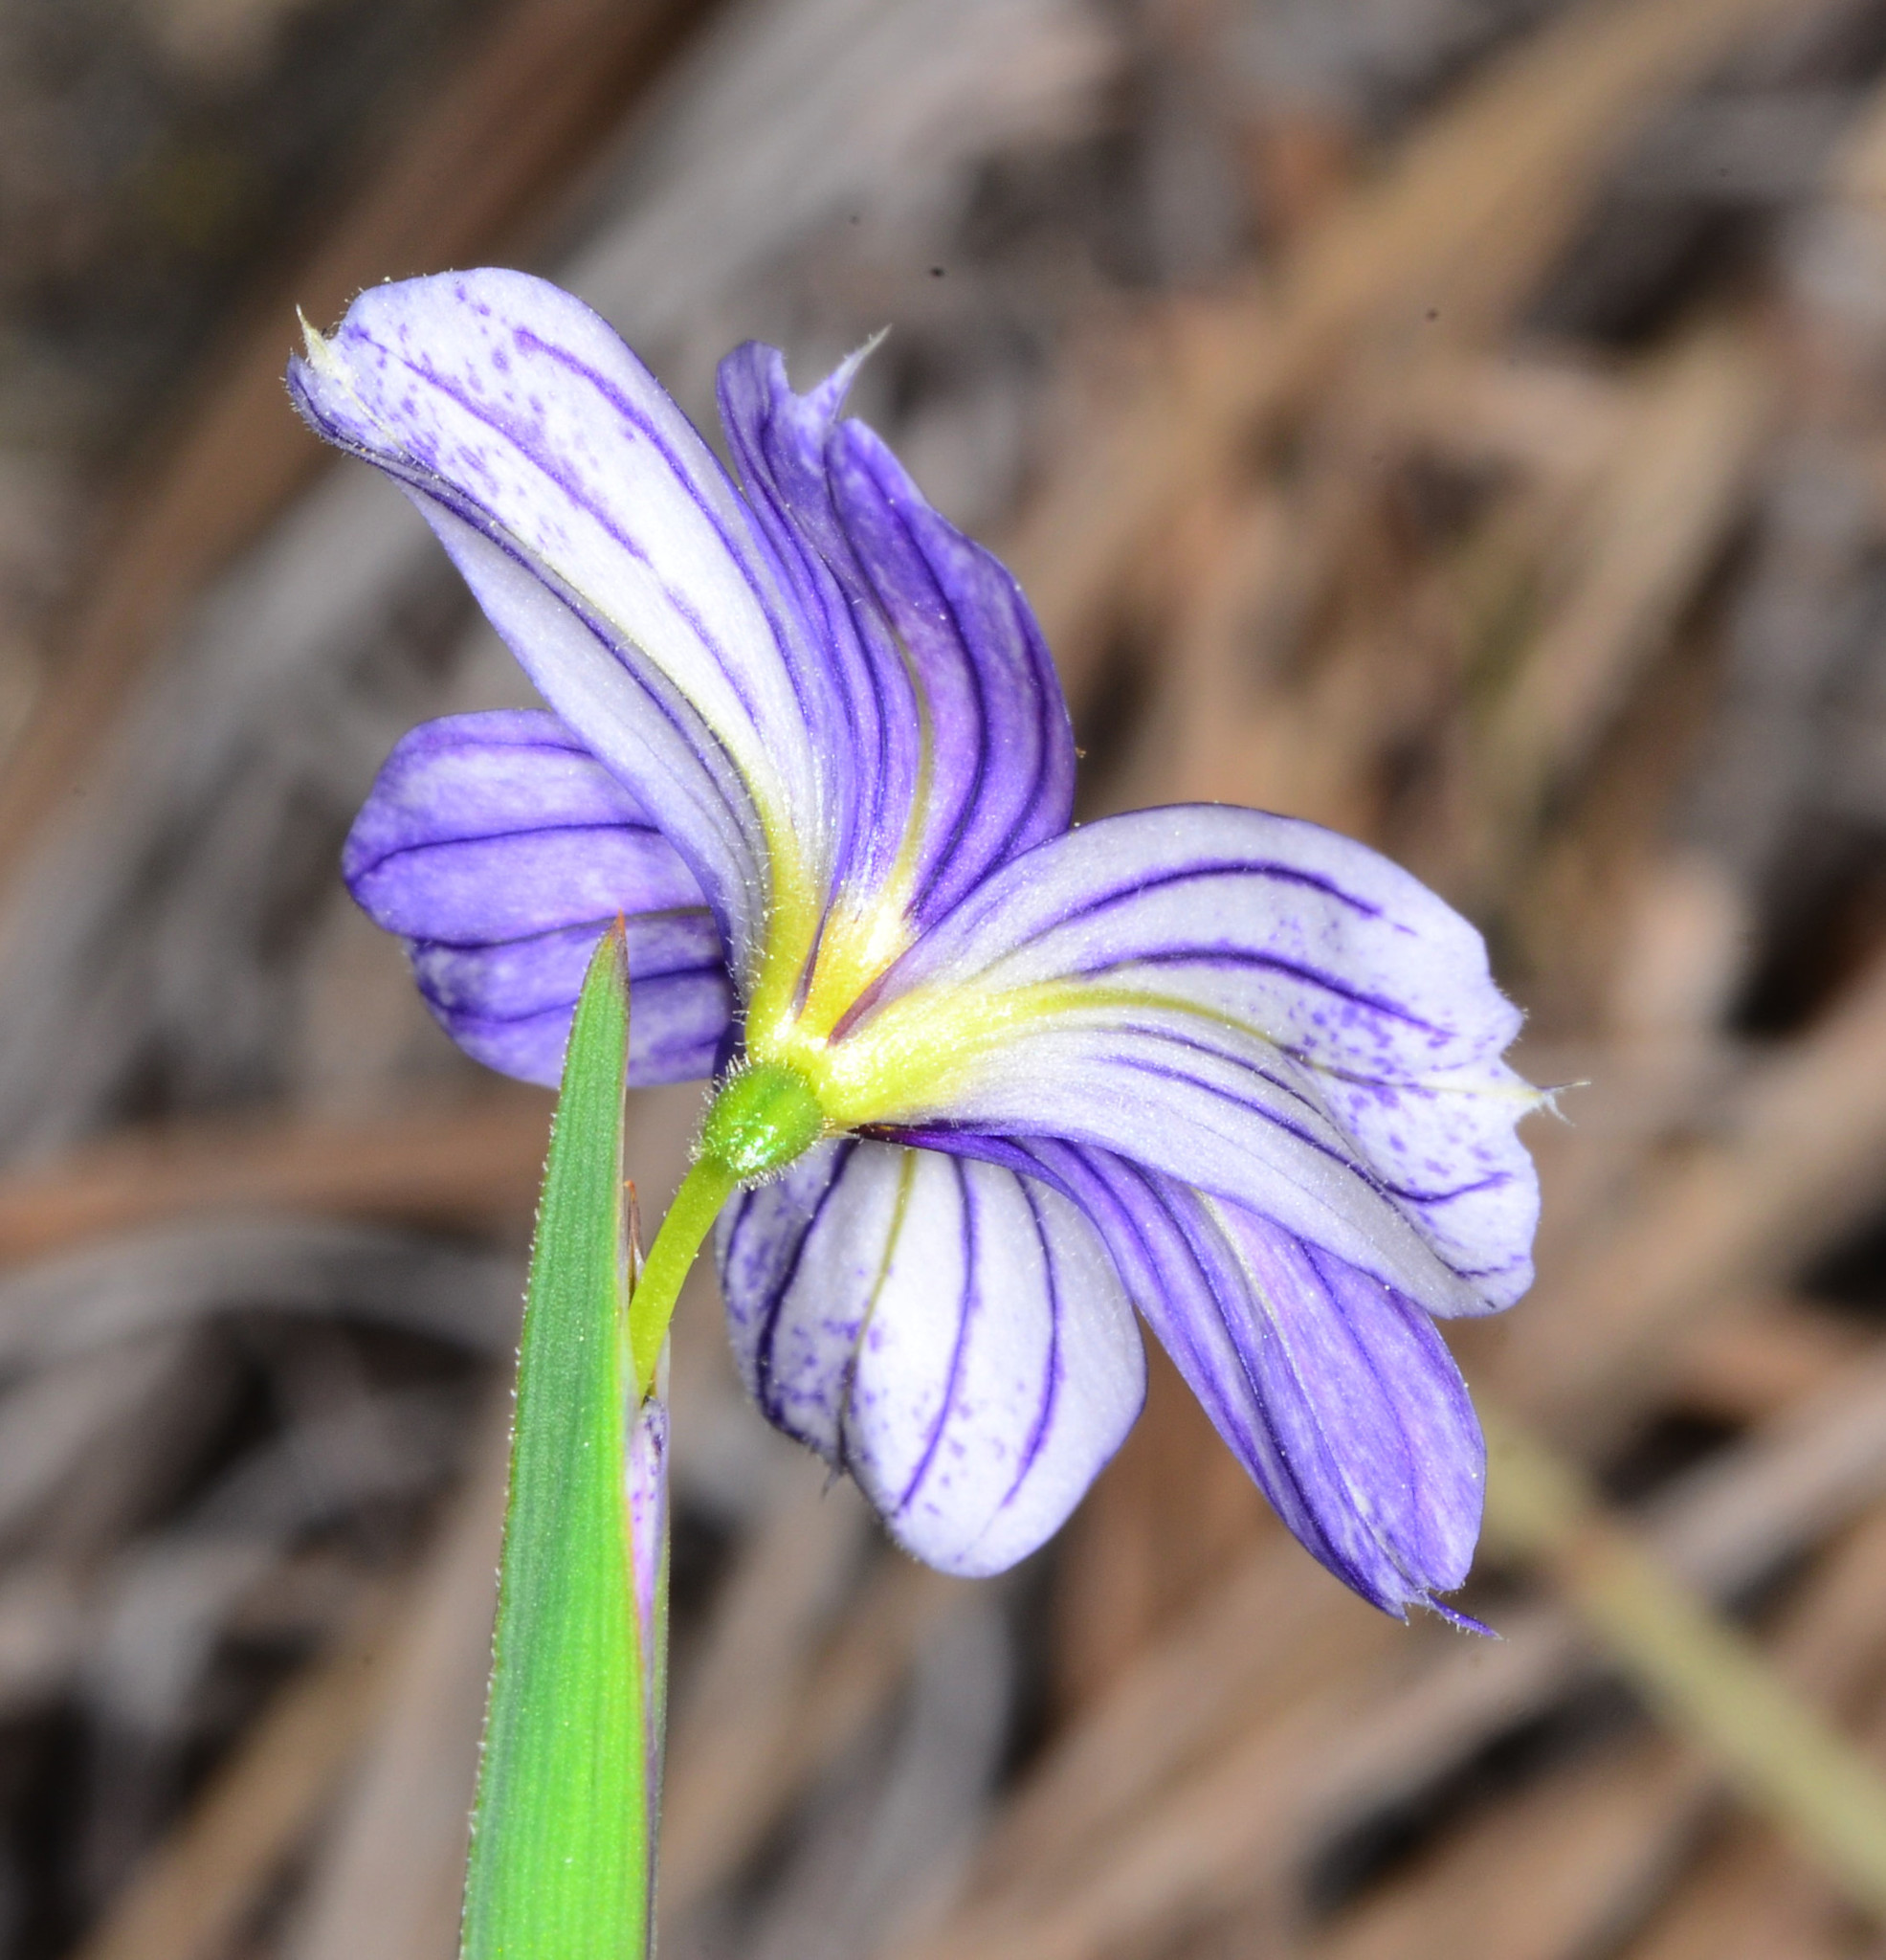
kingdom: Plantae
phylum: Tracheophyta
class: Liliopsida
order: Asparagales
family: Iridaceae
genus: Sisyrinchium
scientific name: Sisyrinchium bellum
